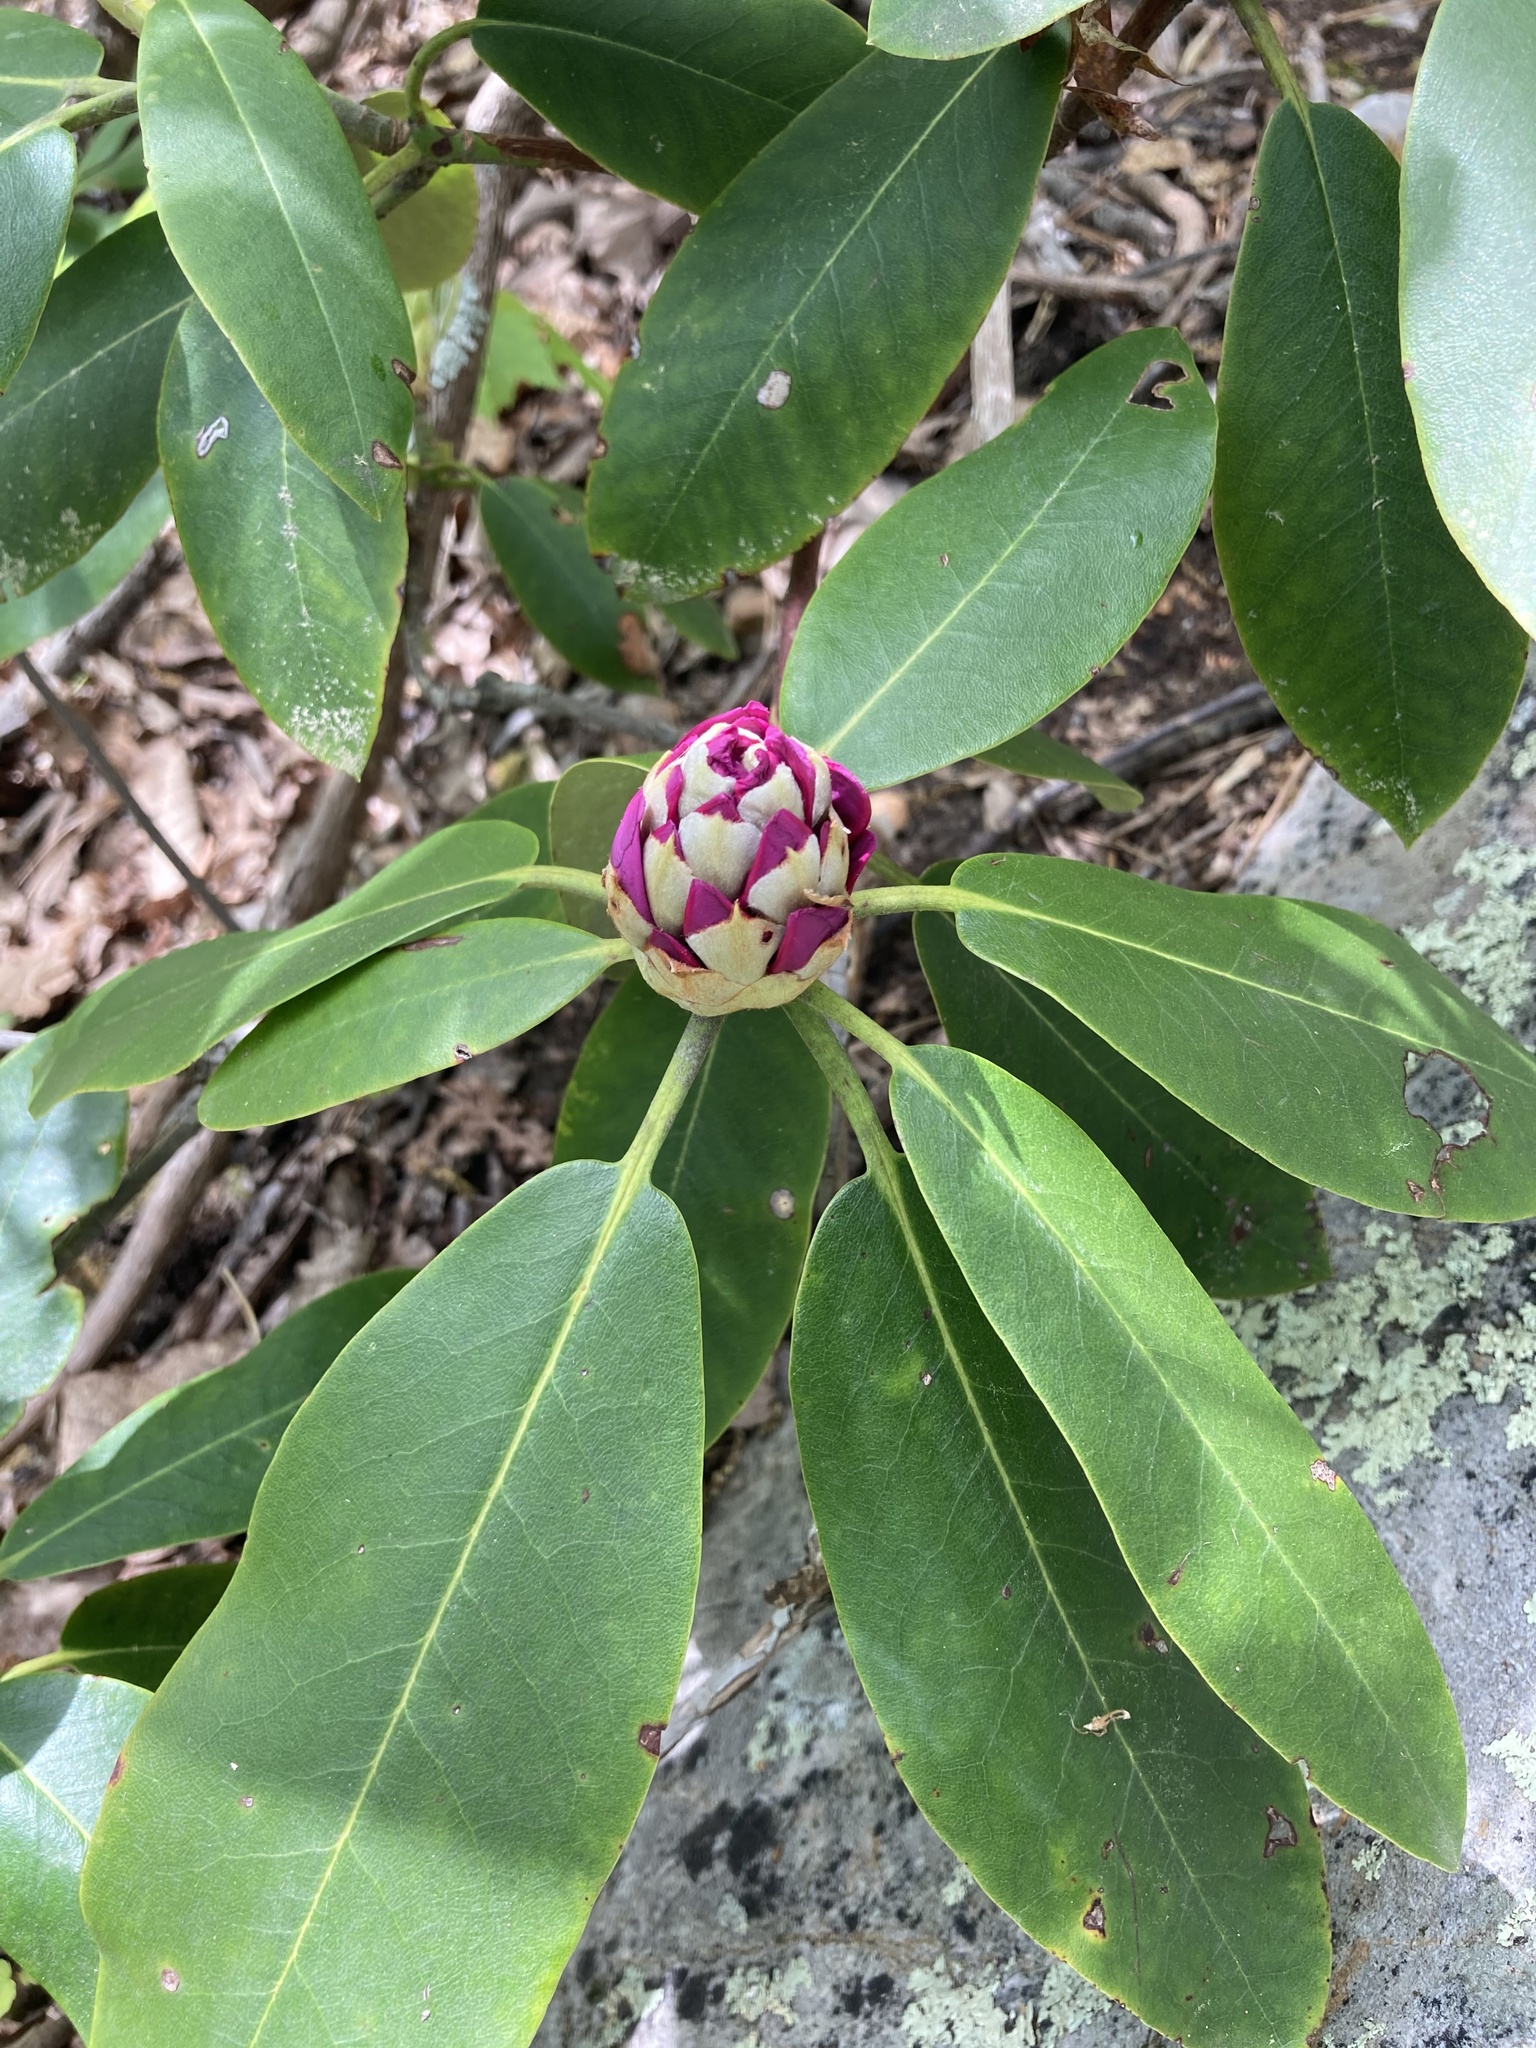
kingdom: Plantae
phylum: Tracheophyta
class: Magnoliopsida
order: Ericales
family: Ericaceae
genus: Rhododendron
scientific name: Rhododendron catawbiense
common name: Catawba rhododendron
